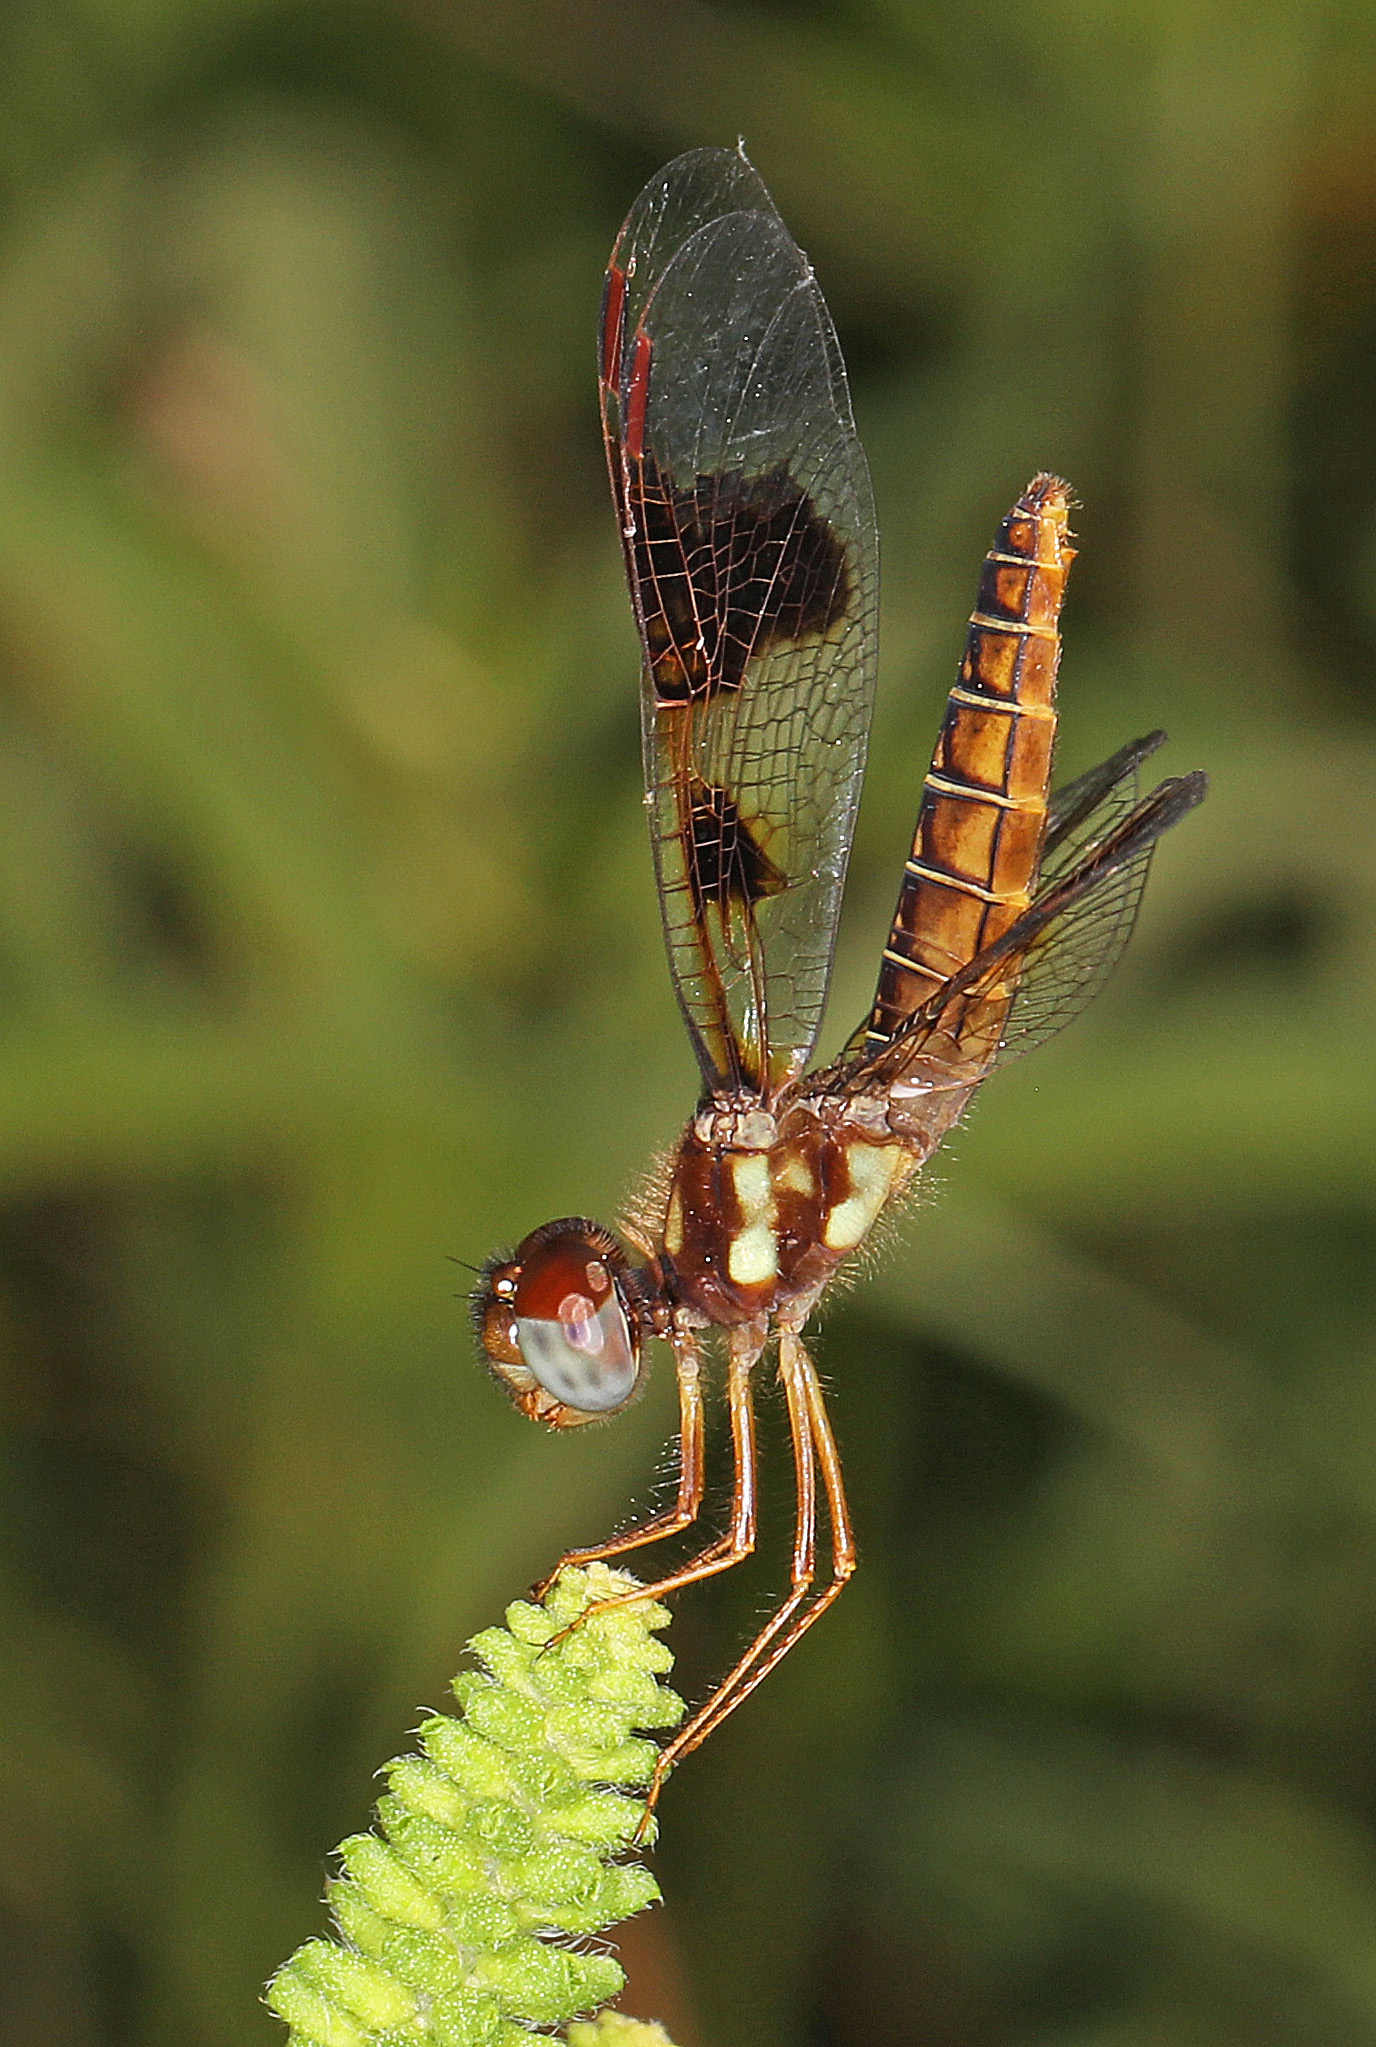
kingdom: Animalia
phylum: Arthropoda
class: Insecta
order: Odonata
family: Libellulidae
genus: Perithemis
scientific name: Perithemis tenera
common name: Eastern amberwing
